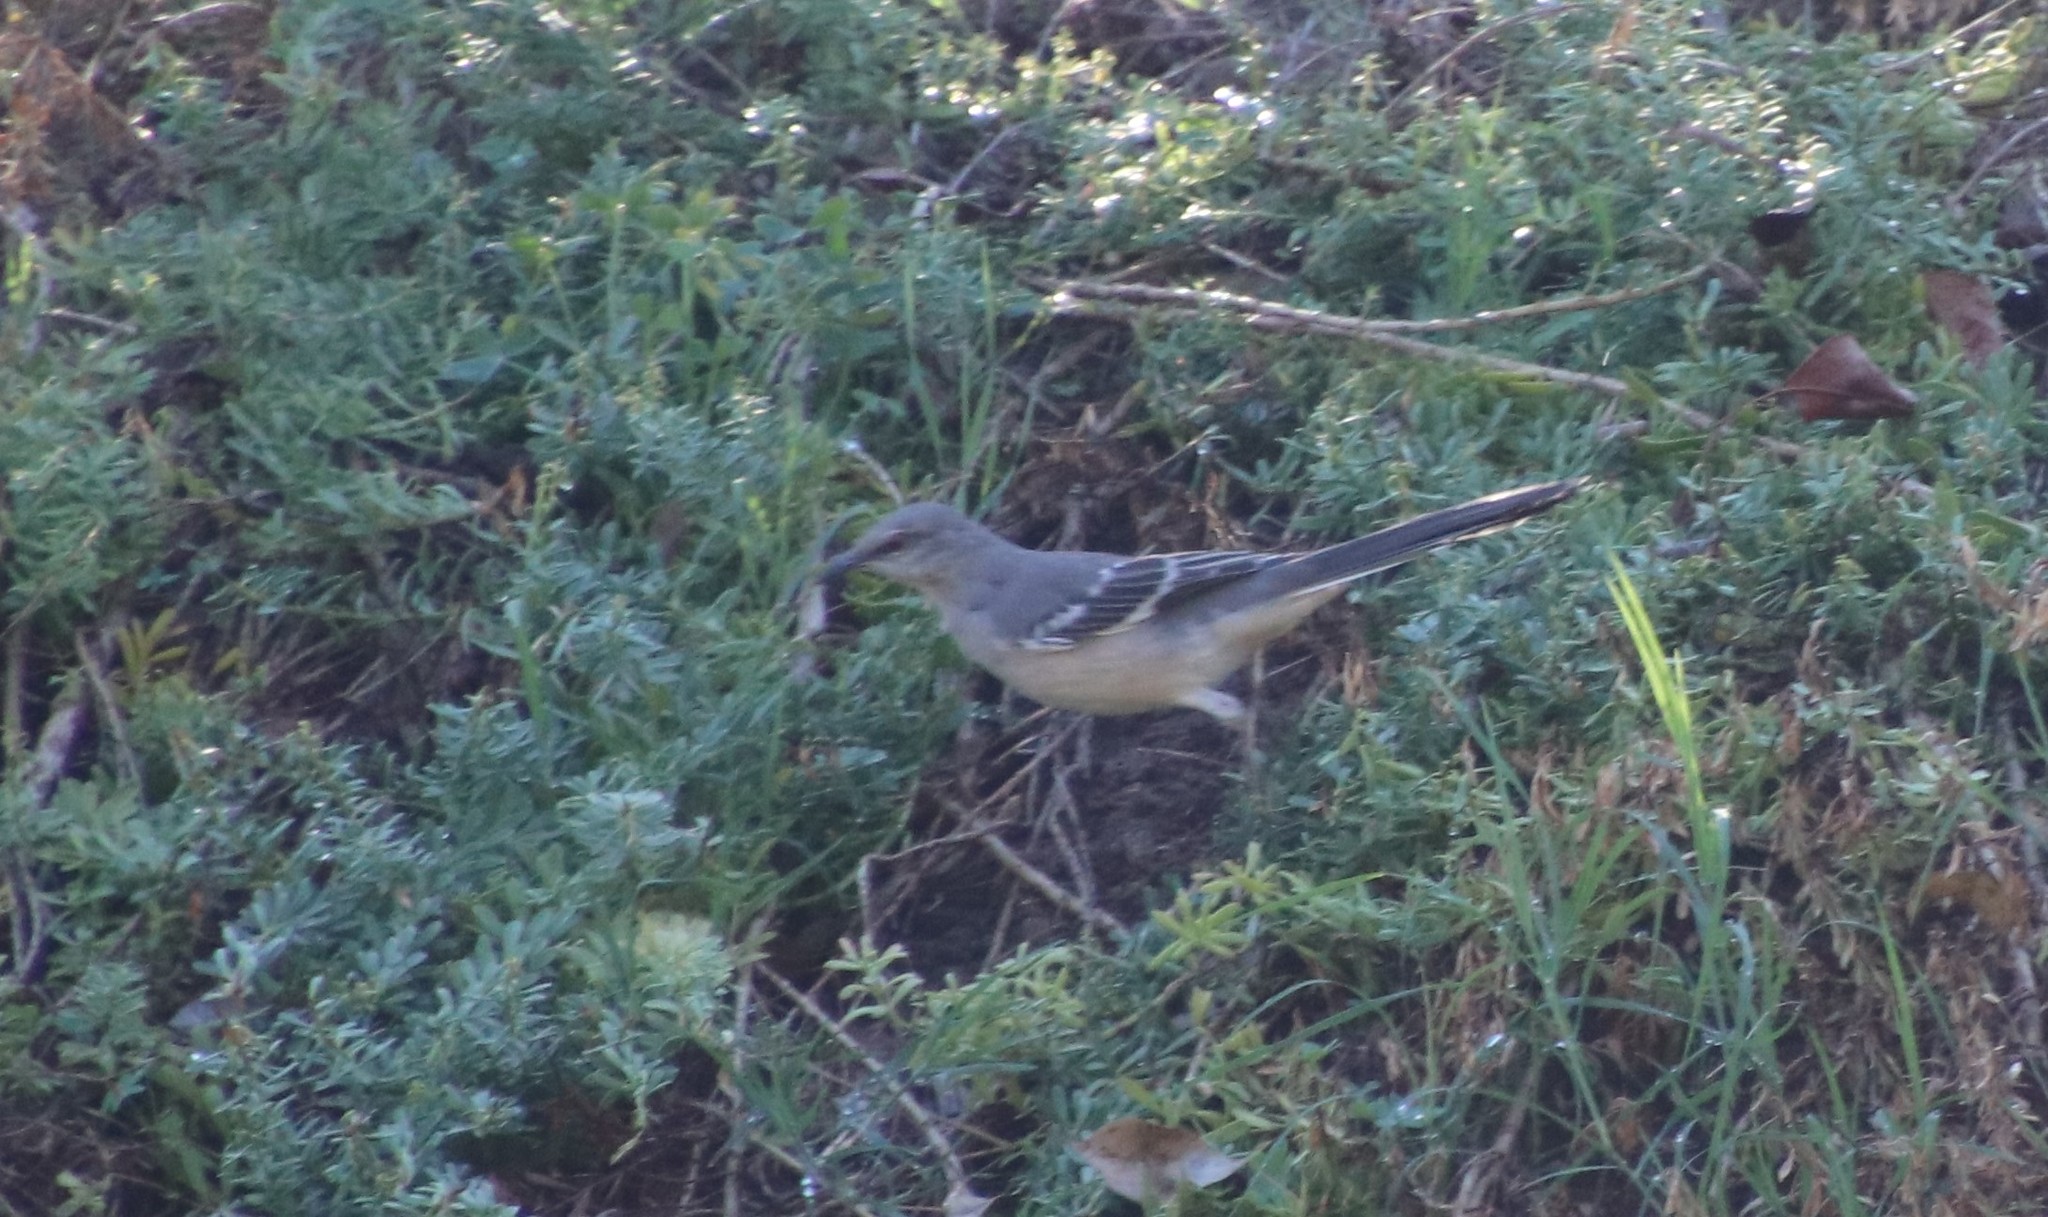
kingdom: Animalia
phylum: Chordata
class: Aves
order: Passeriformes
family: Mimidae
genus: Mimus
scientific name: Mimus polyglottos
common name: Northern mockingbird
